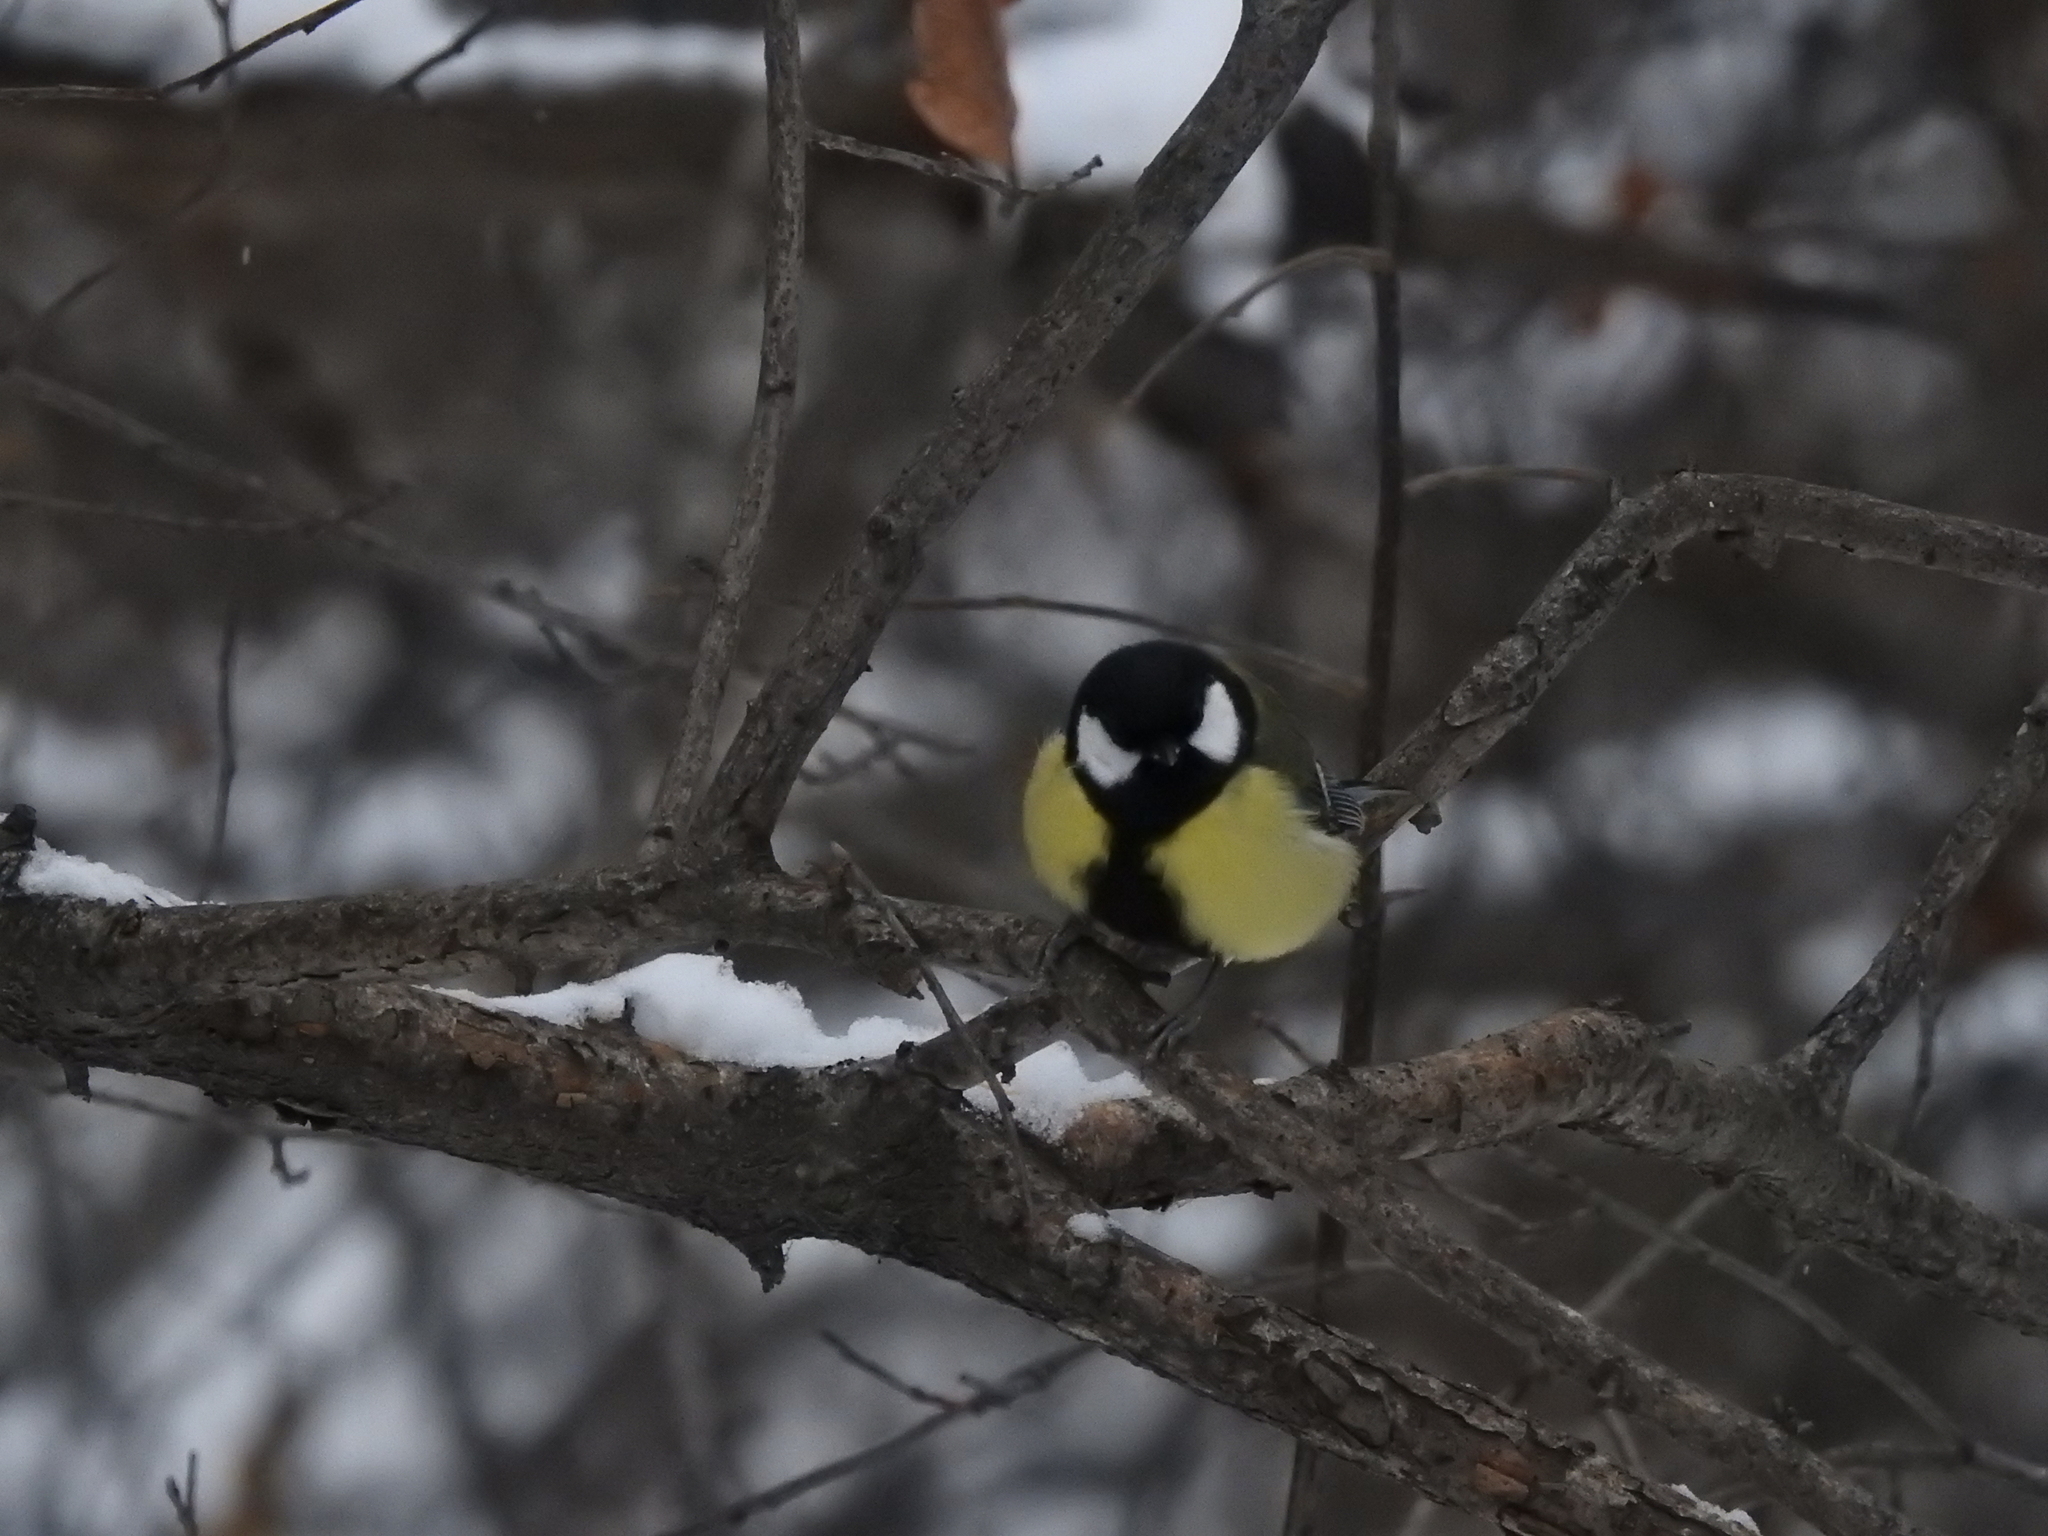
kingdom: Animalia
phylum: Chordata
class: Aves
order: Passeriformes
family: Paridae
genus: Parus
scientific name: Parus major
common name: Great tit
